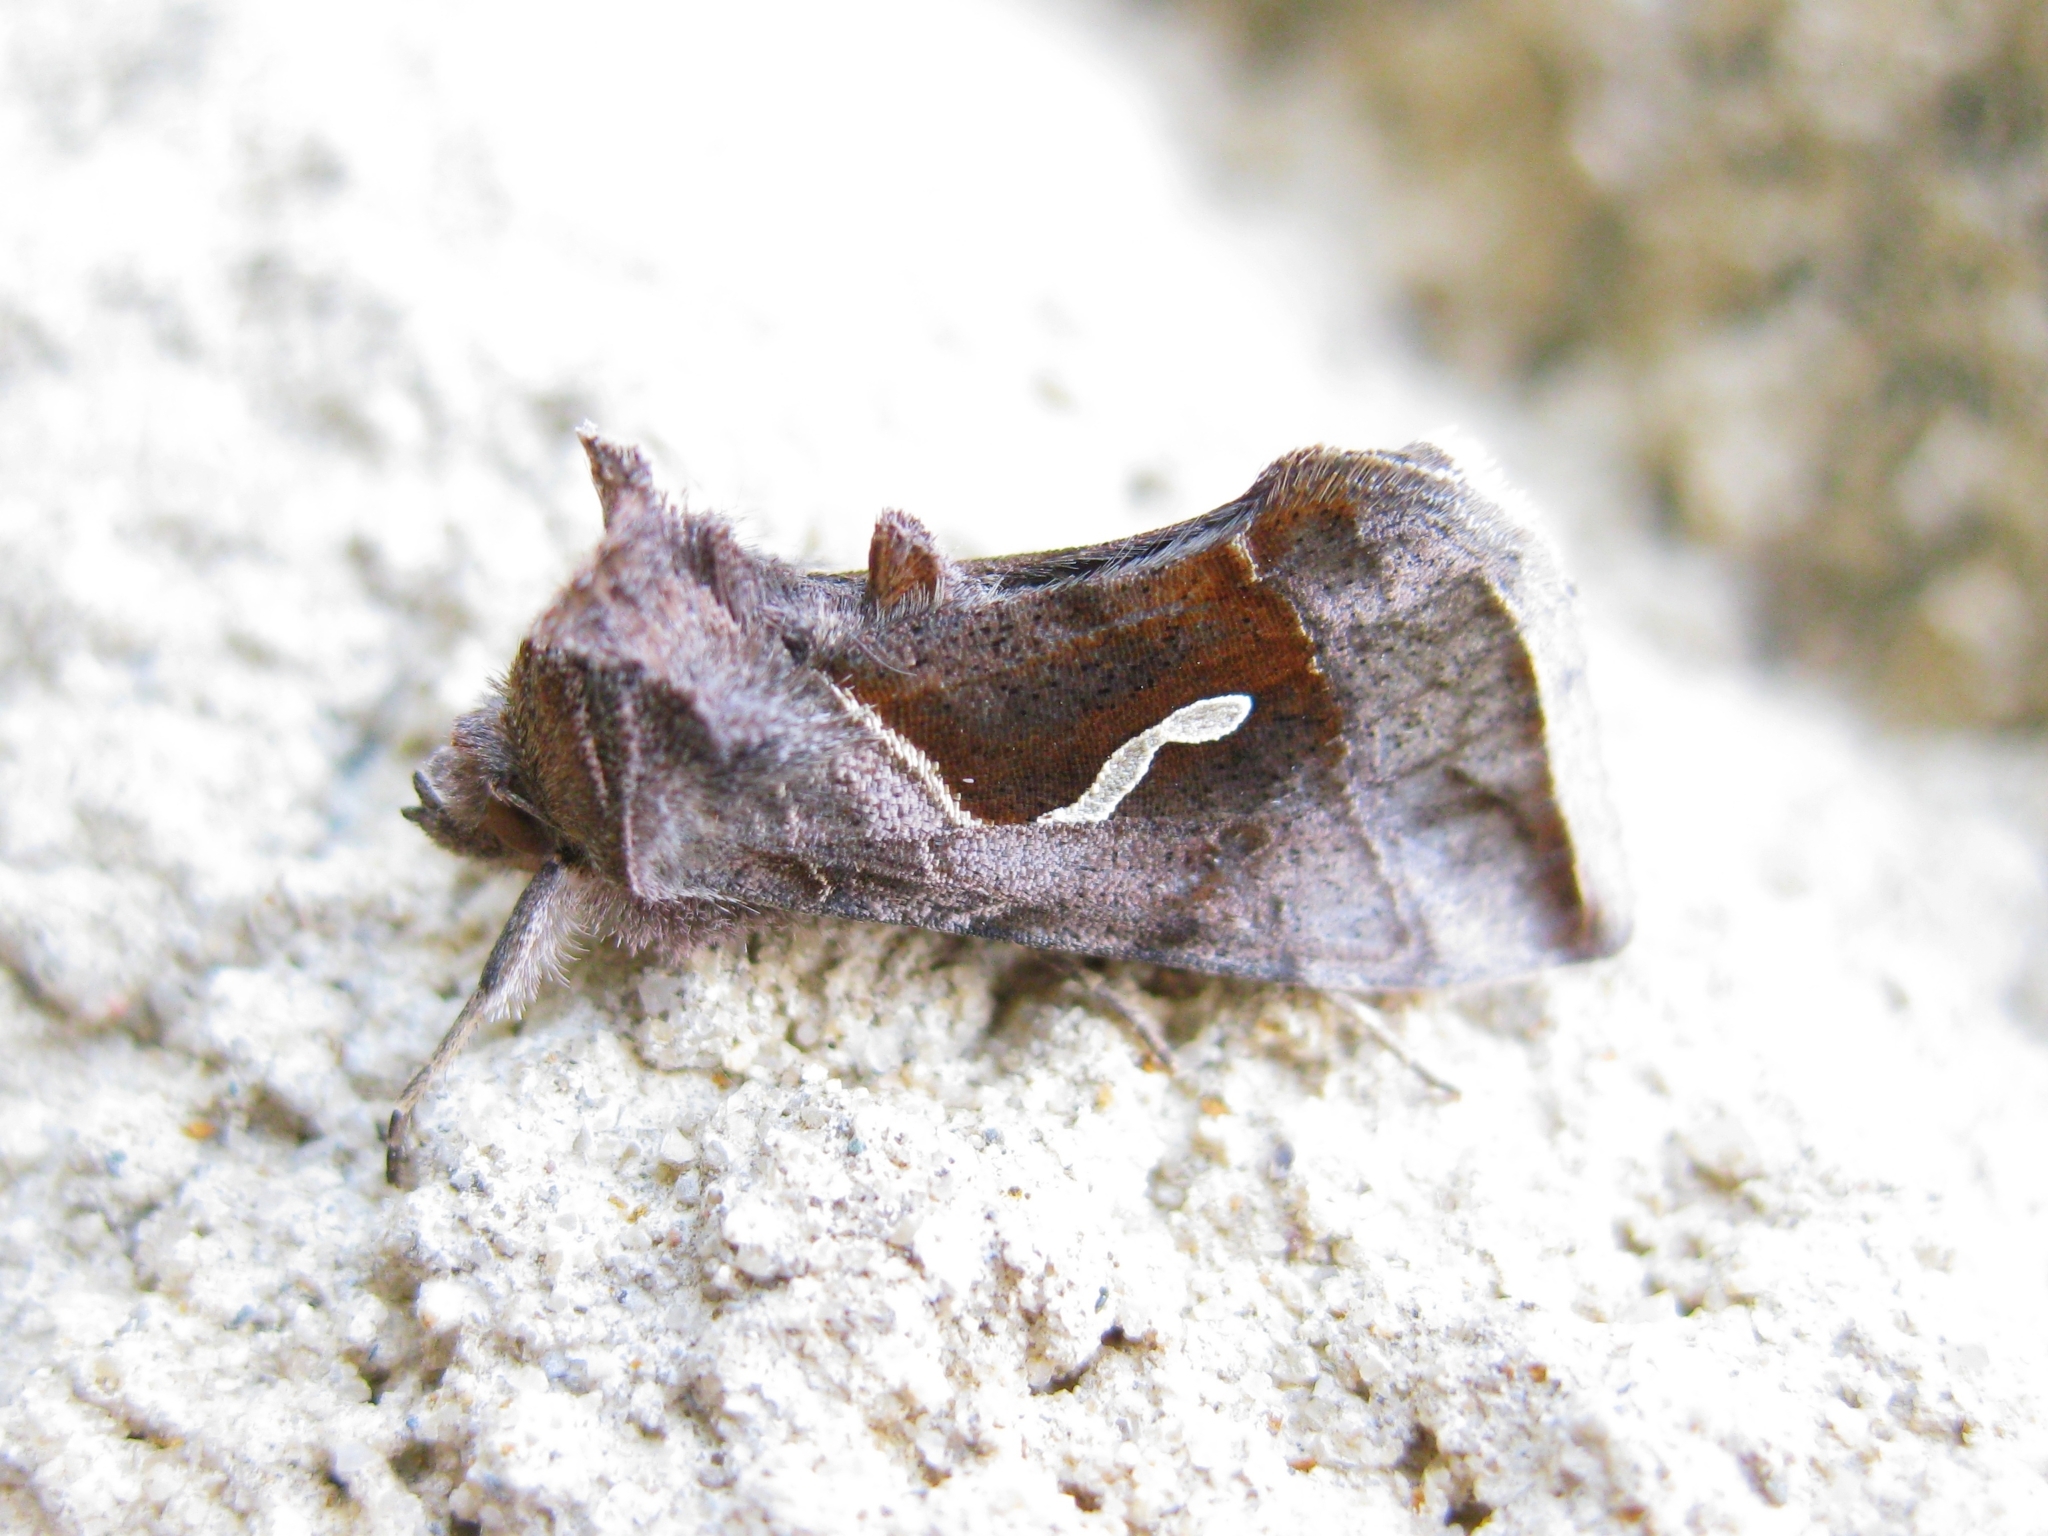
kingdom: Animalia
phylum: Arthropoda
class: Insecta
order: Lepidoptera
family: Noctuidae
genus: Macdunnoughia
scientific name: Macdunnoughia confusa
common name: Dewick's plusia
